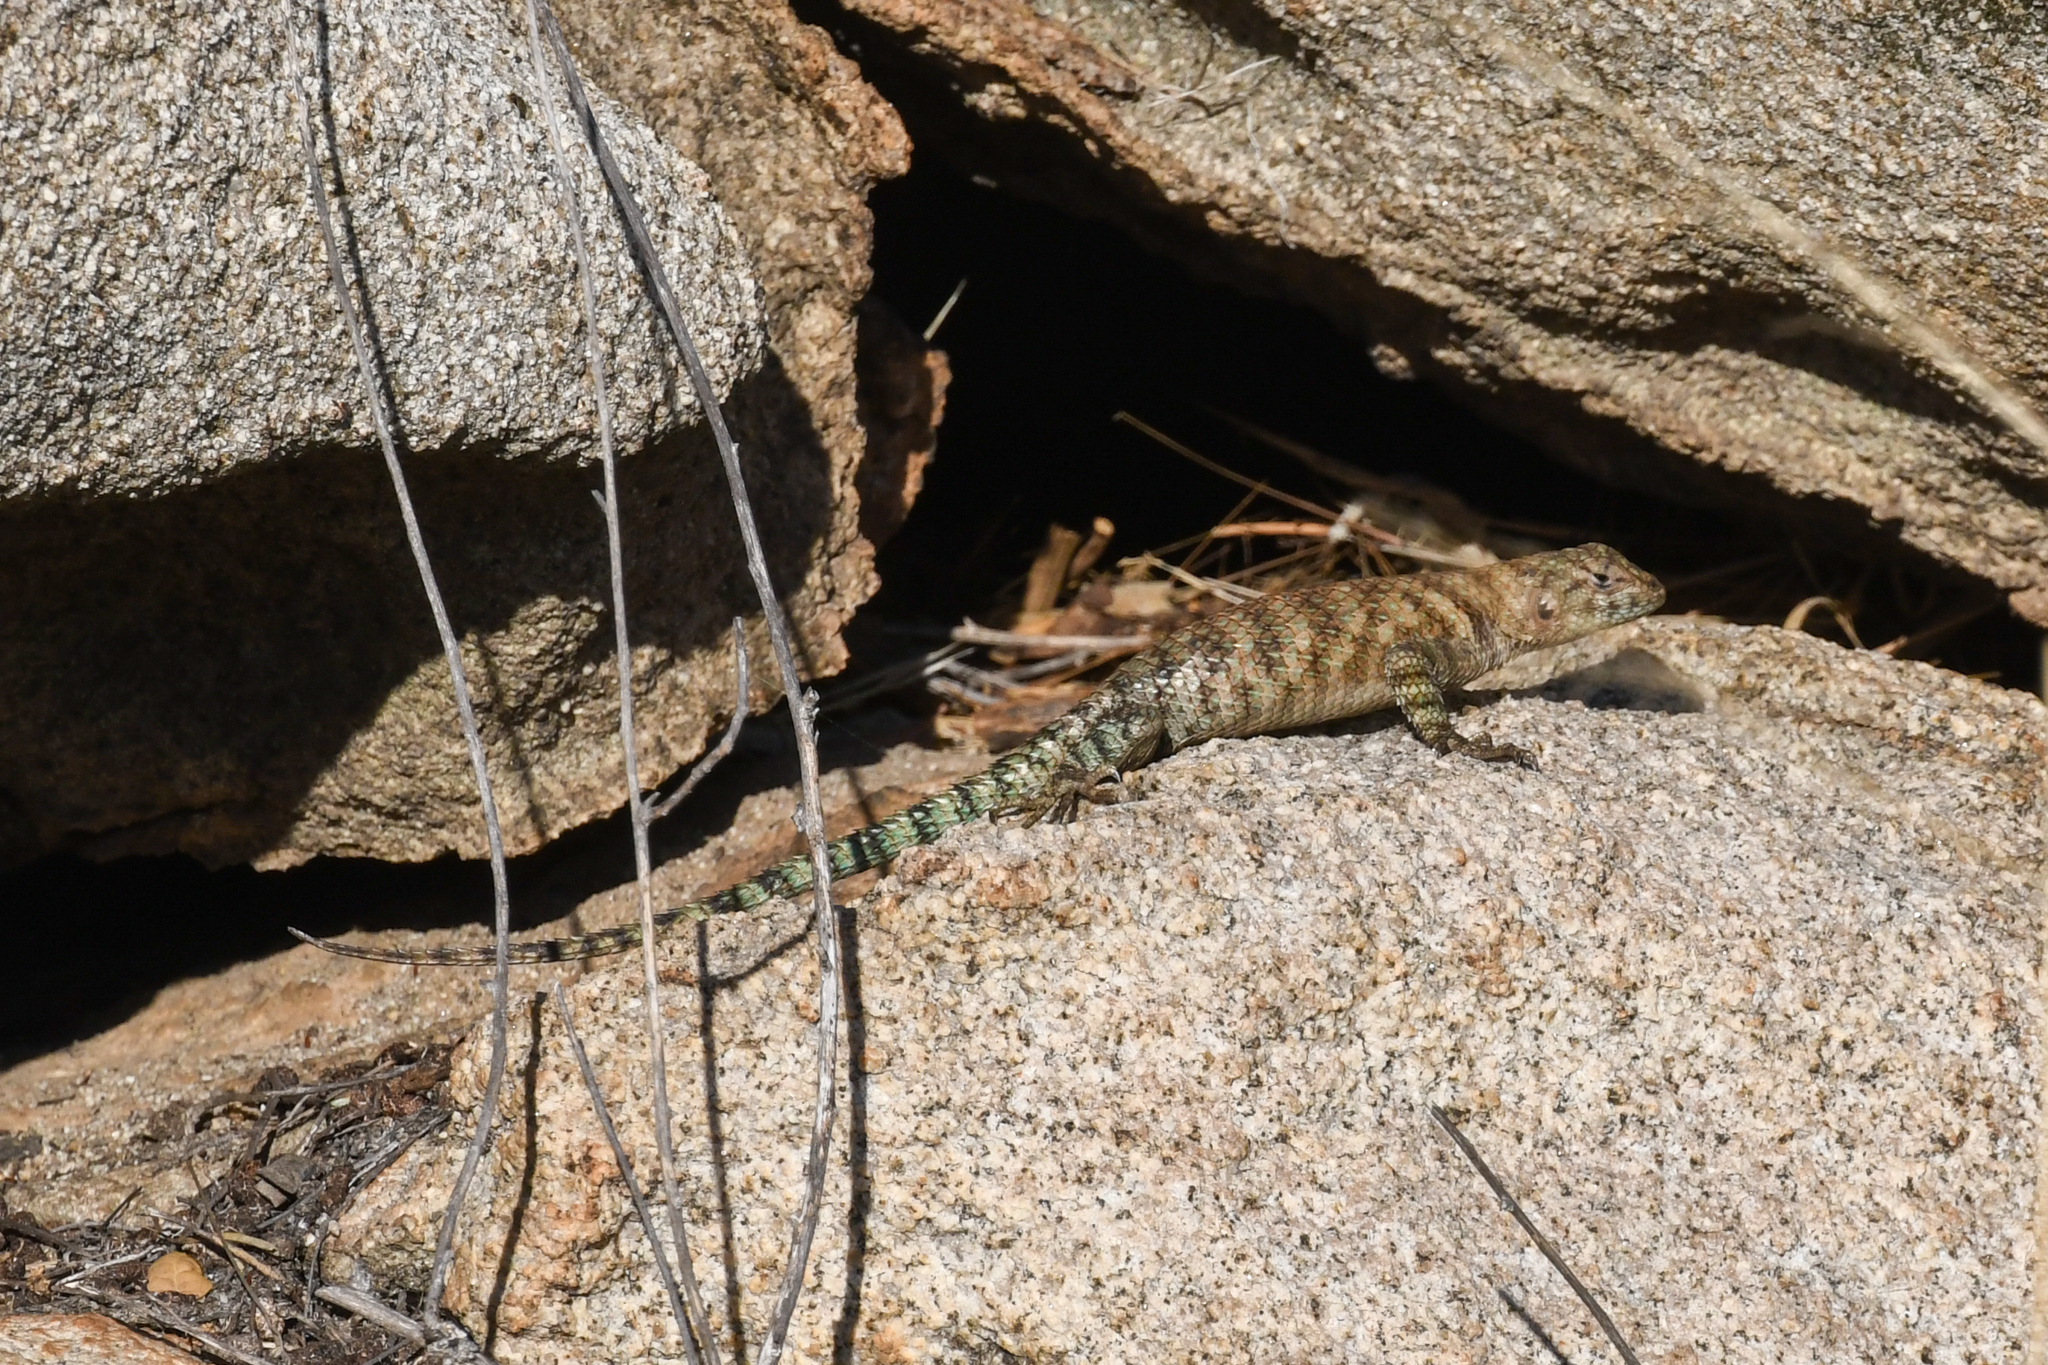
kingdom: Animalia
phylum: Chordata
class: Squamata
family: Phrynosomatidae
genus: Sceloporus
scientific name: Sceloporus orcutti
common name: Granite spiny lizard
